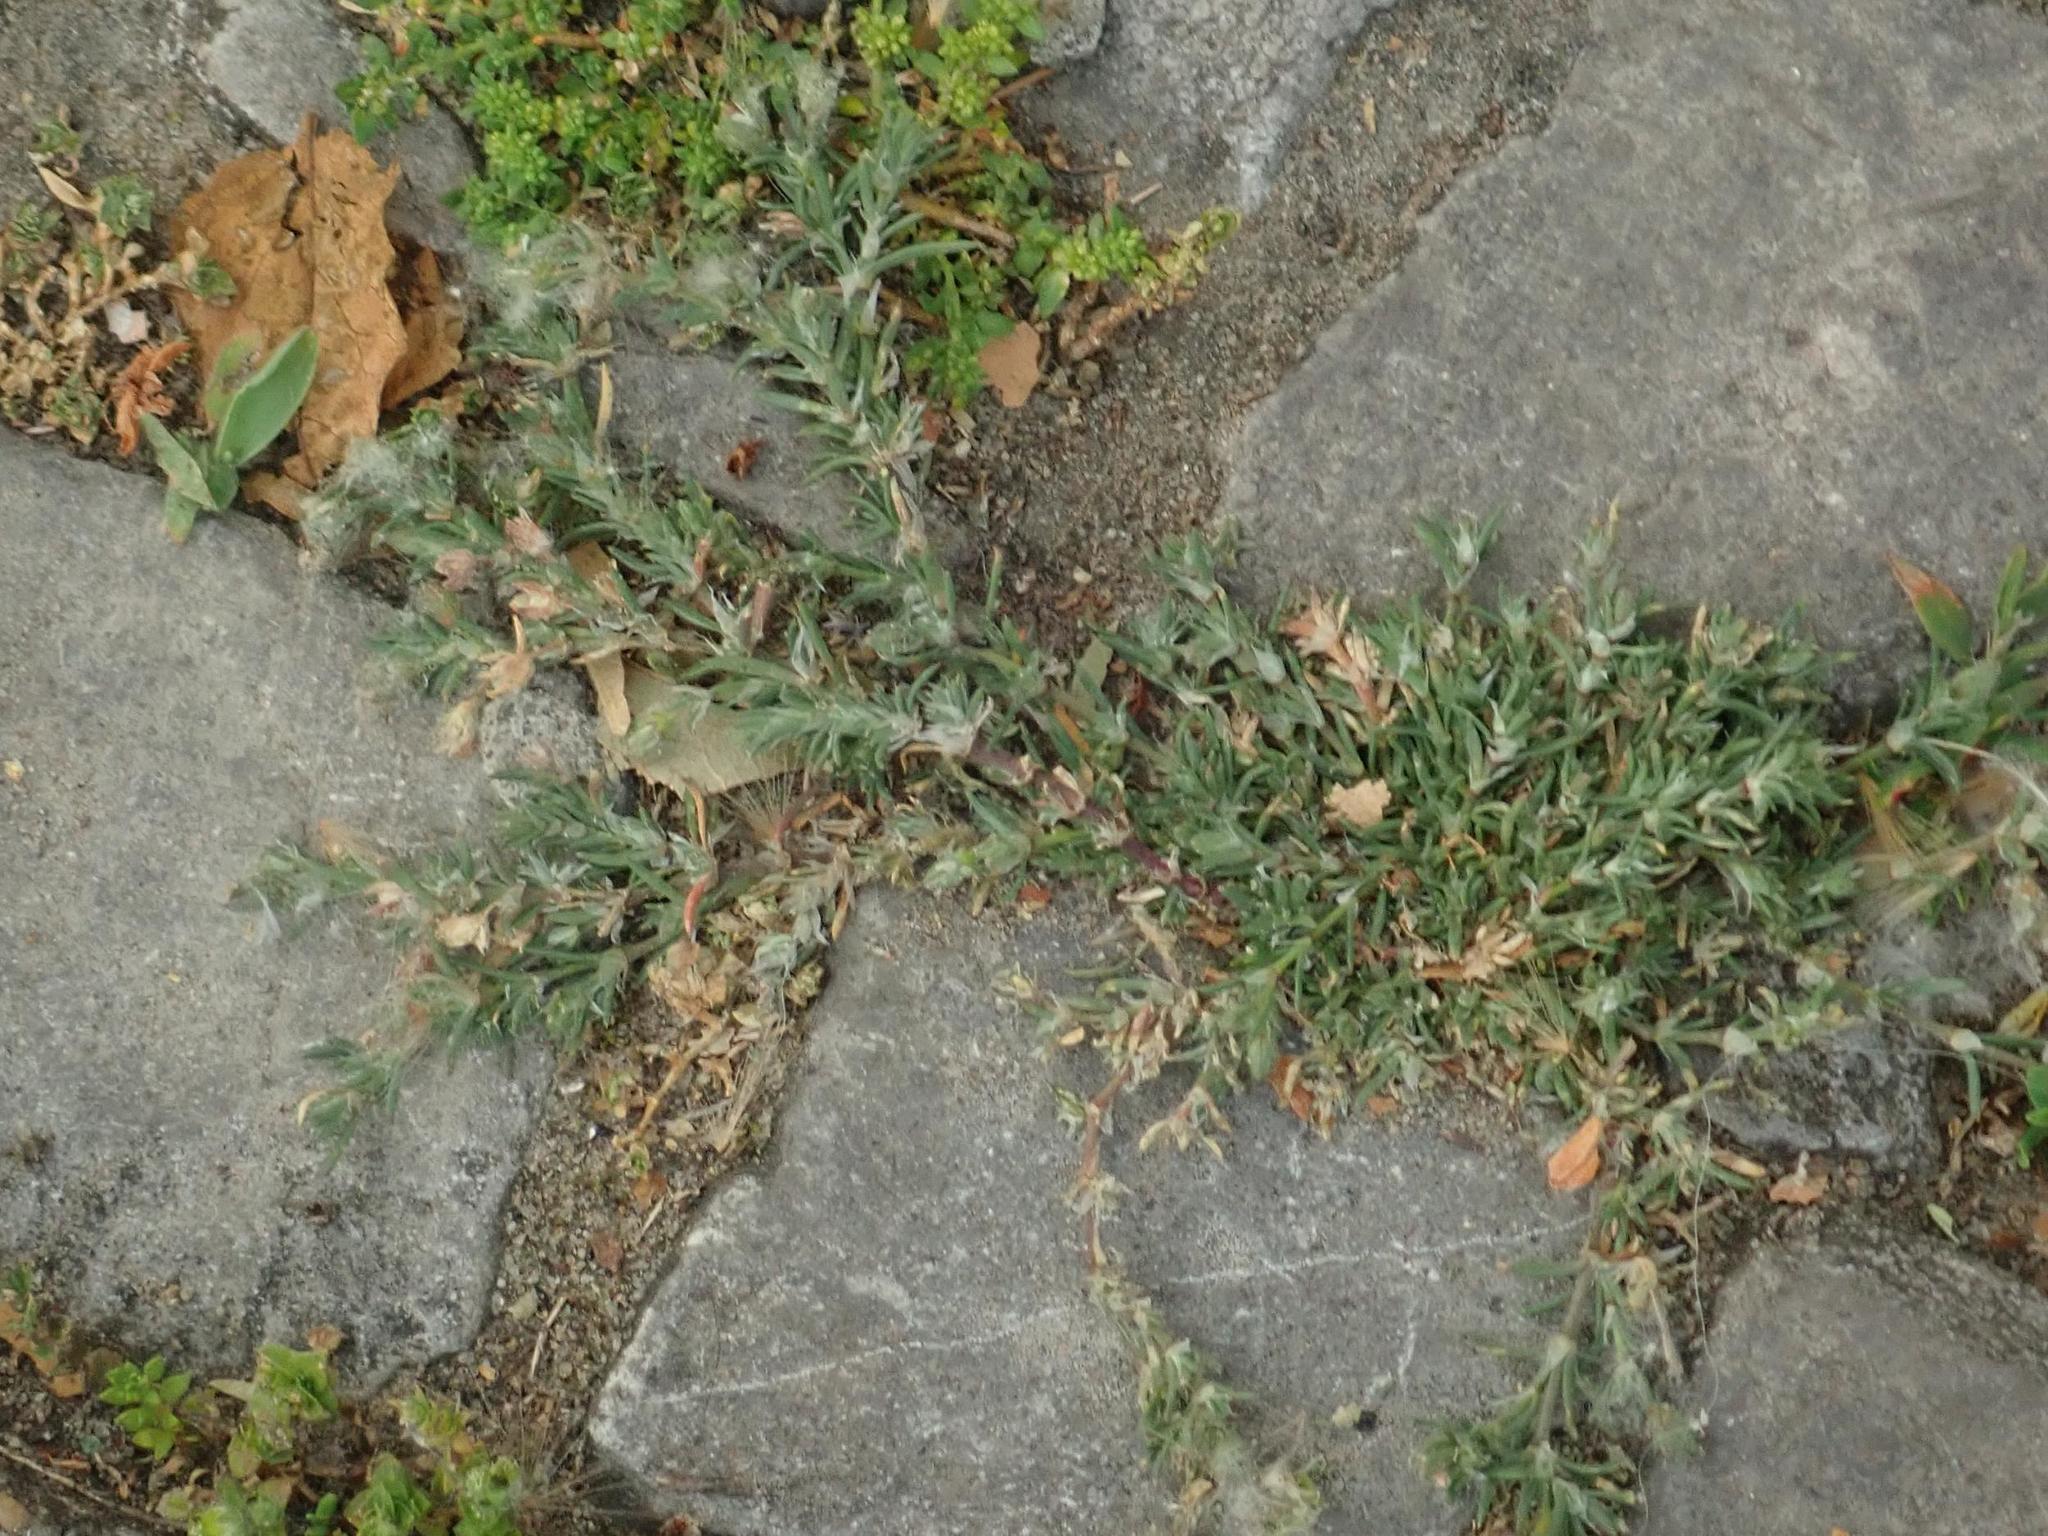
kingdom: Plantae
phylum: Tracheophyta
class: Magnoliopsida
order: Caryophyllales
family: Caryophyllaceae
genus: Spergularia
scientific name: Spergularia rubra
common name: Red sand-spurrey
